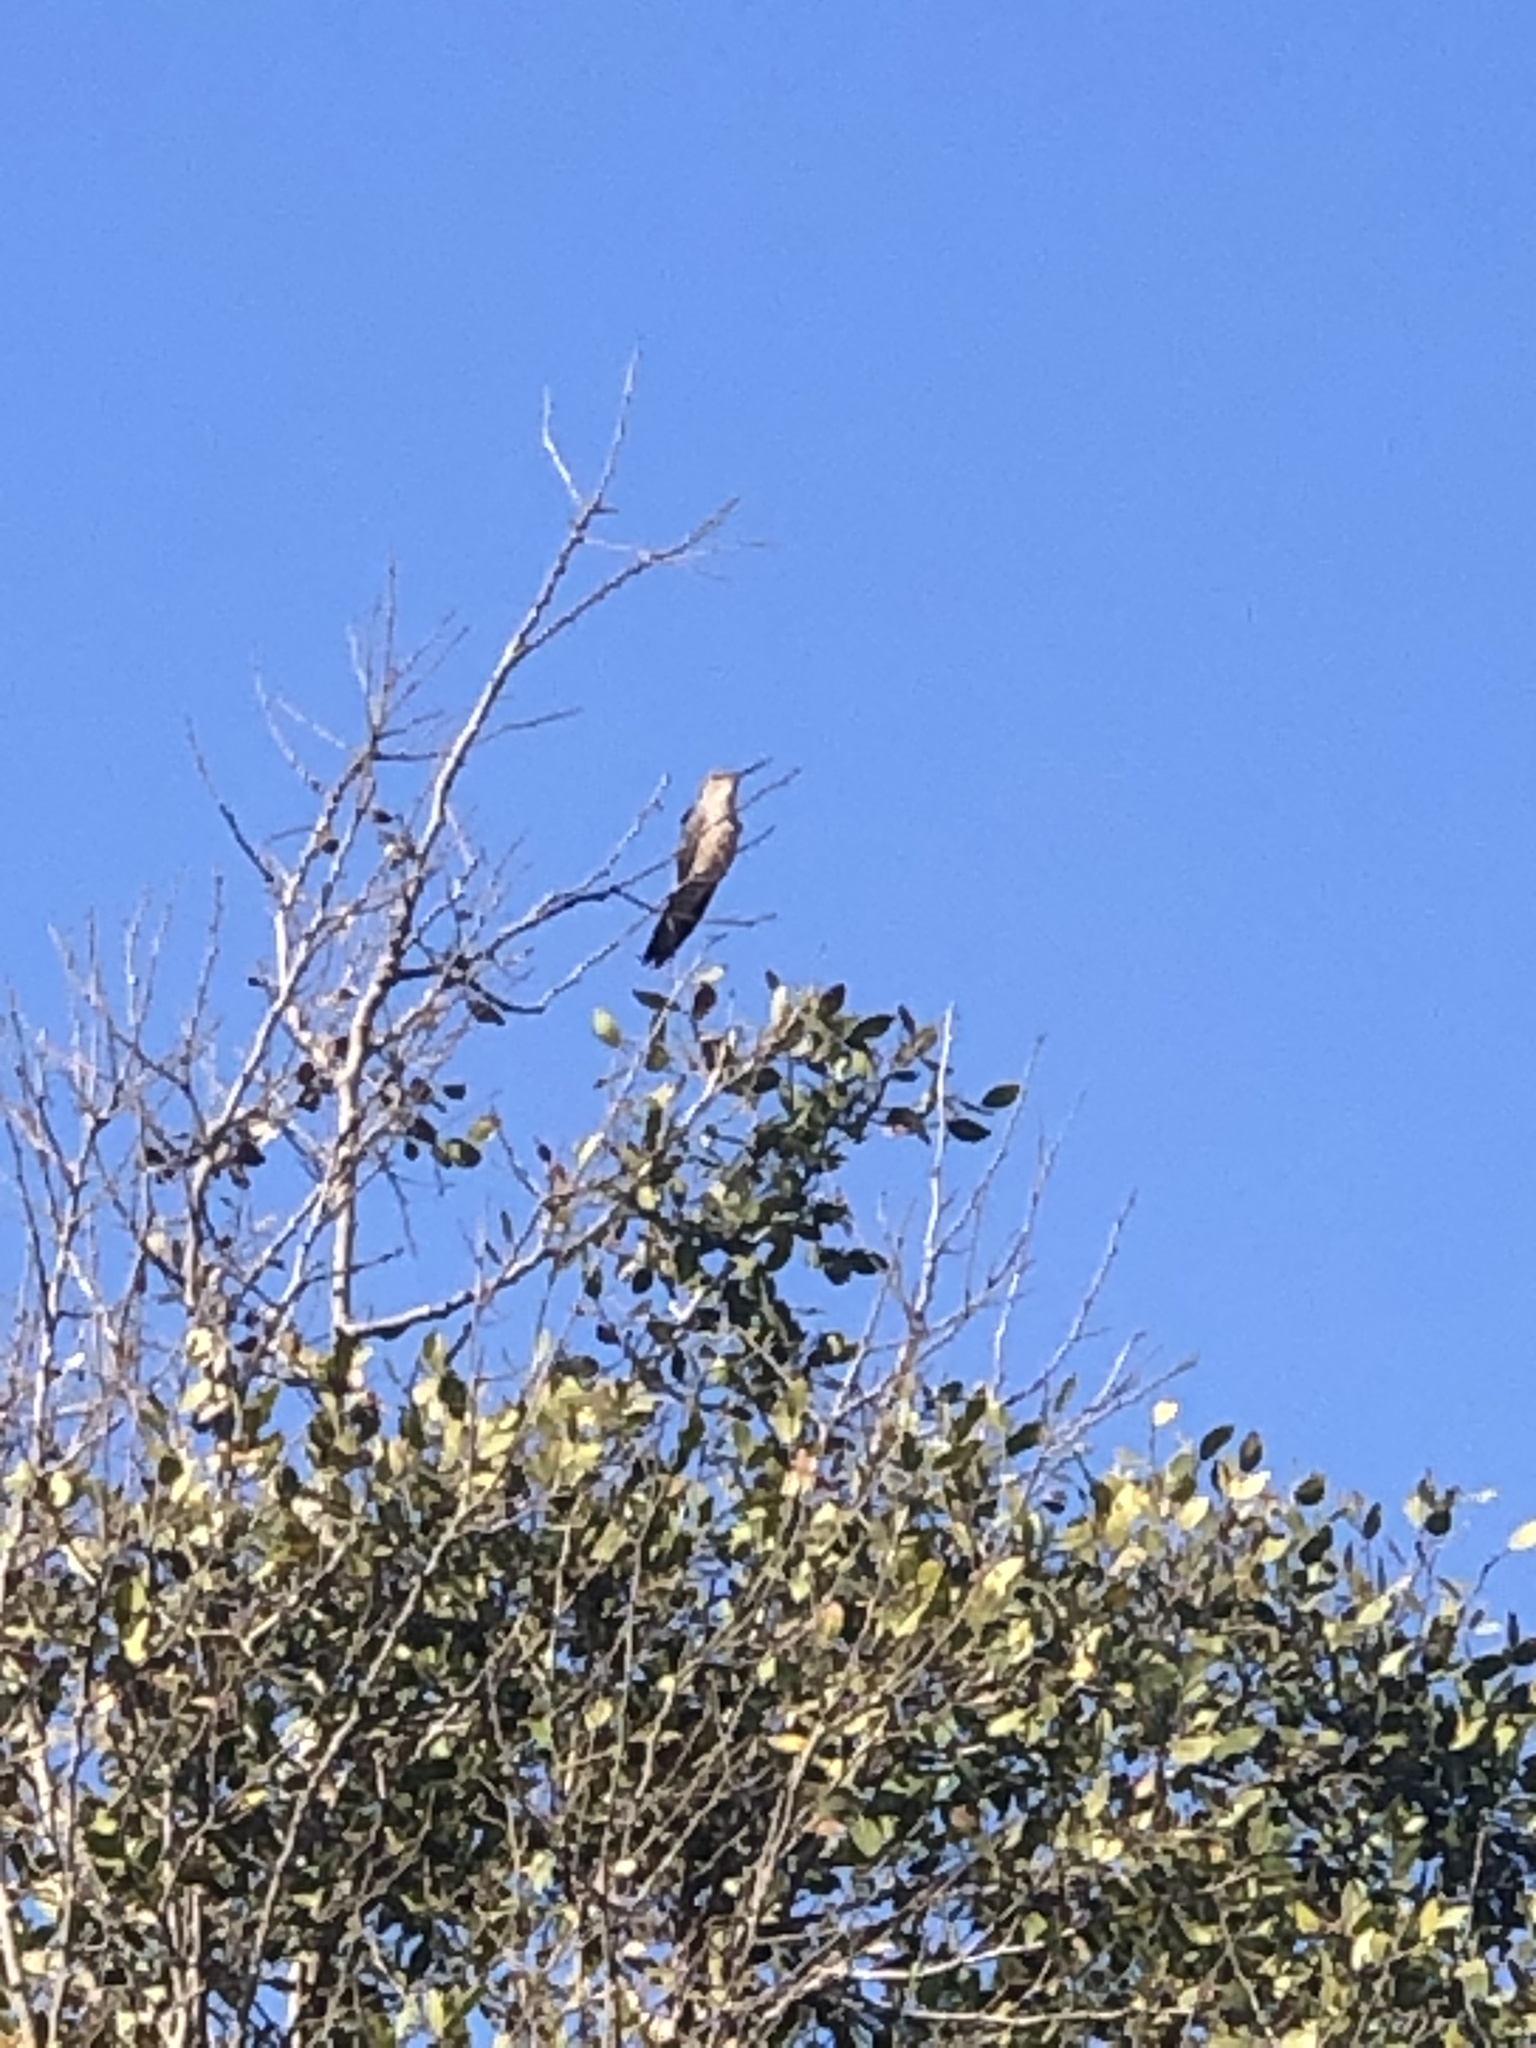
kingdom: Animalia
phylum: Chordata
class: Aves
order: Apodiformes
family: Trochilidae
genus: Patagona
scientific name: Patagona gigas
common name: Giant hummingbird
